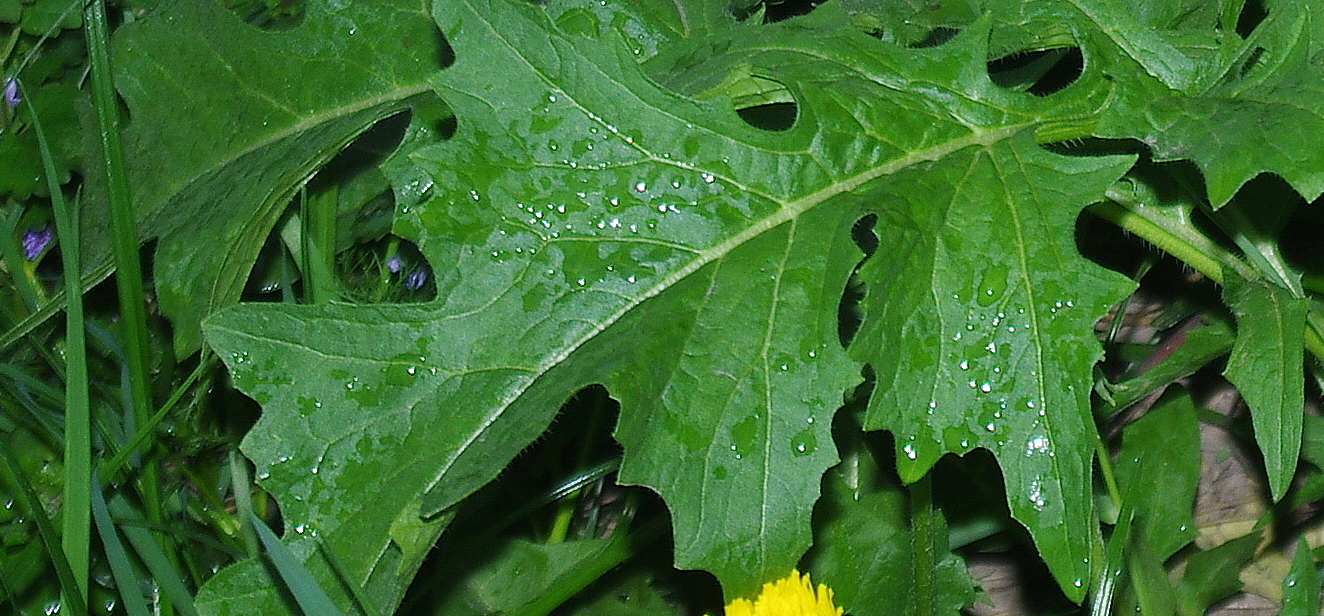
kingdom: Plantae
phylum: Tracheophyta
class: Magnoliopsida
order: Brassicales
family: Brassicaceae
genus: Sisymbrium
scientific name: Sisymbrium loeselii
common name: False london-rocket
